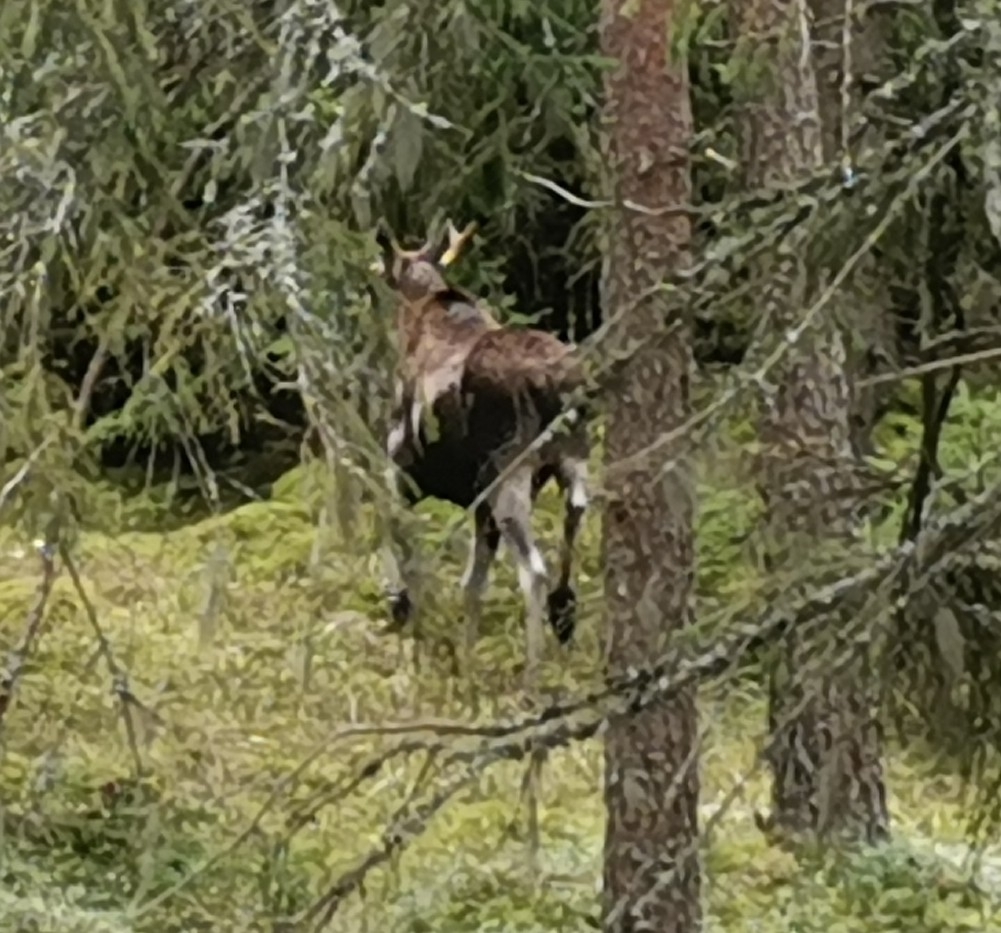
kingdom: Animalia
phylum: Chordata
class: Mammalia
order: Artiodactyla
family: Cervidae
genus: Alces
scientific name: Alces alces
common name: Moose
